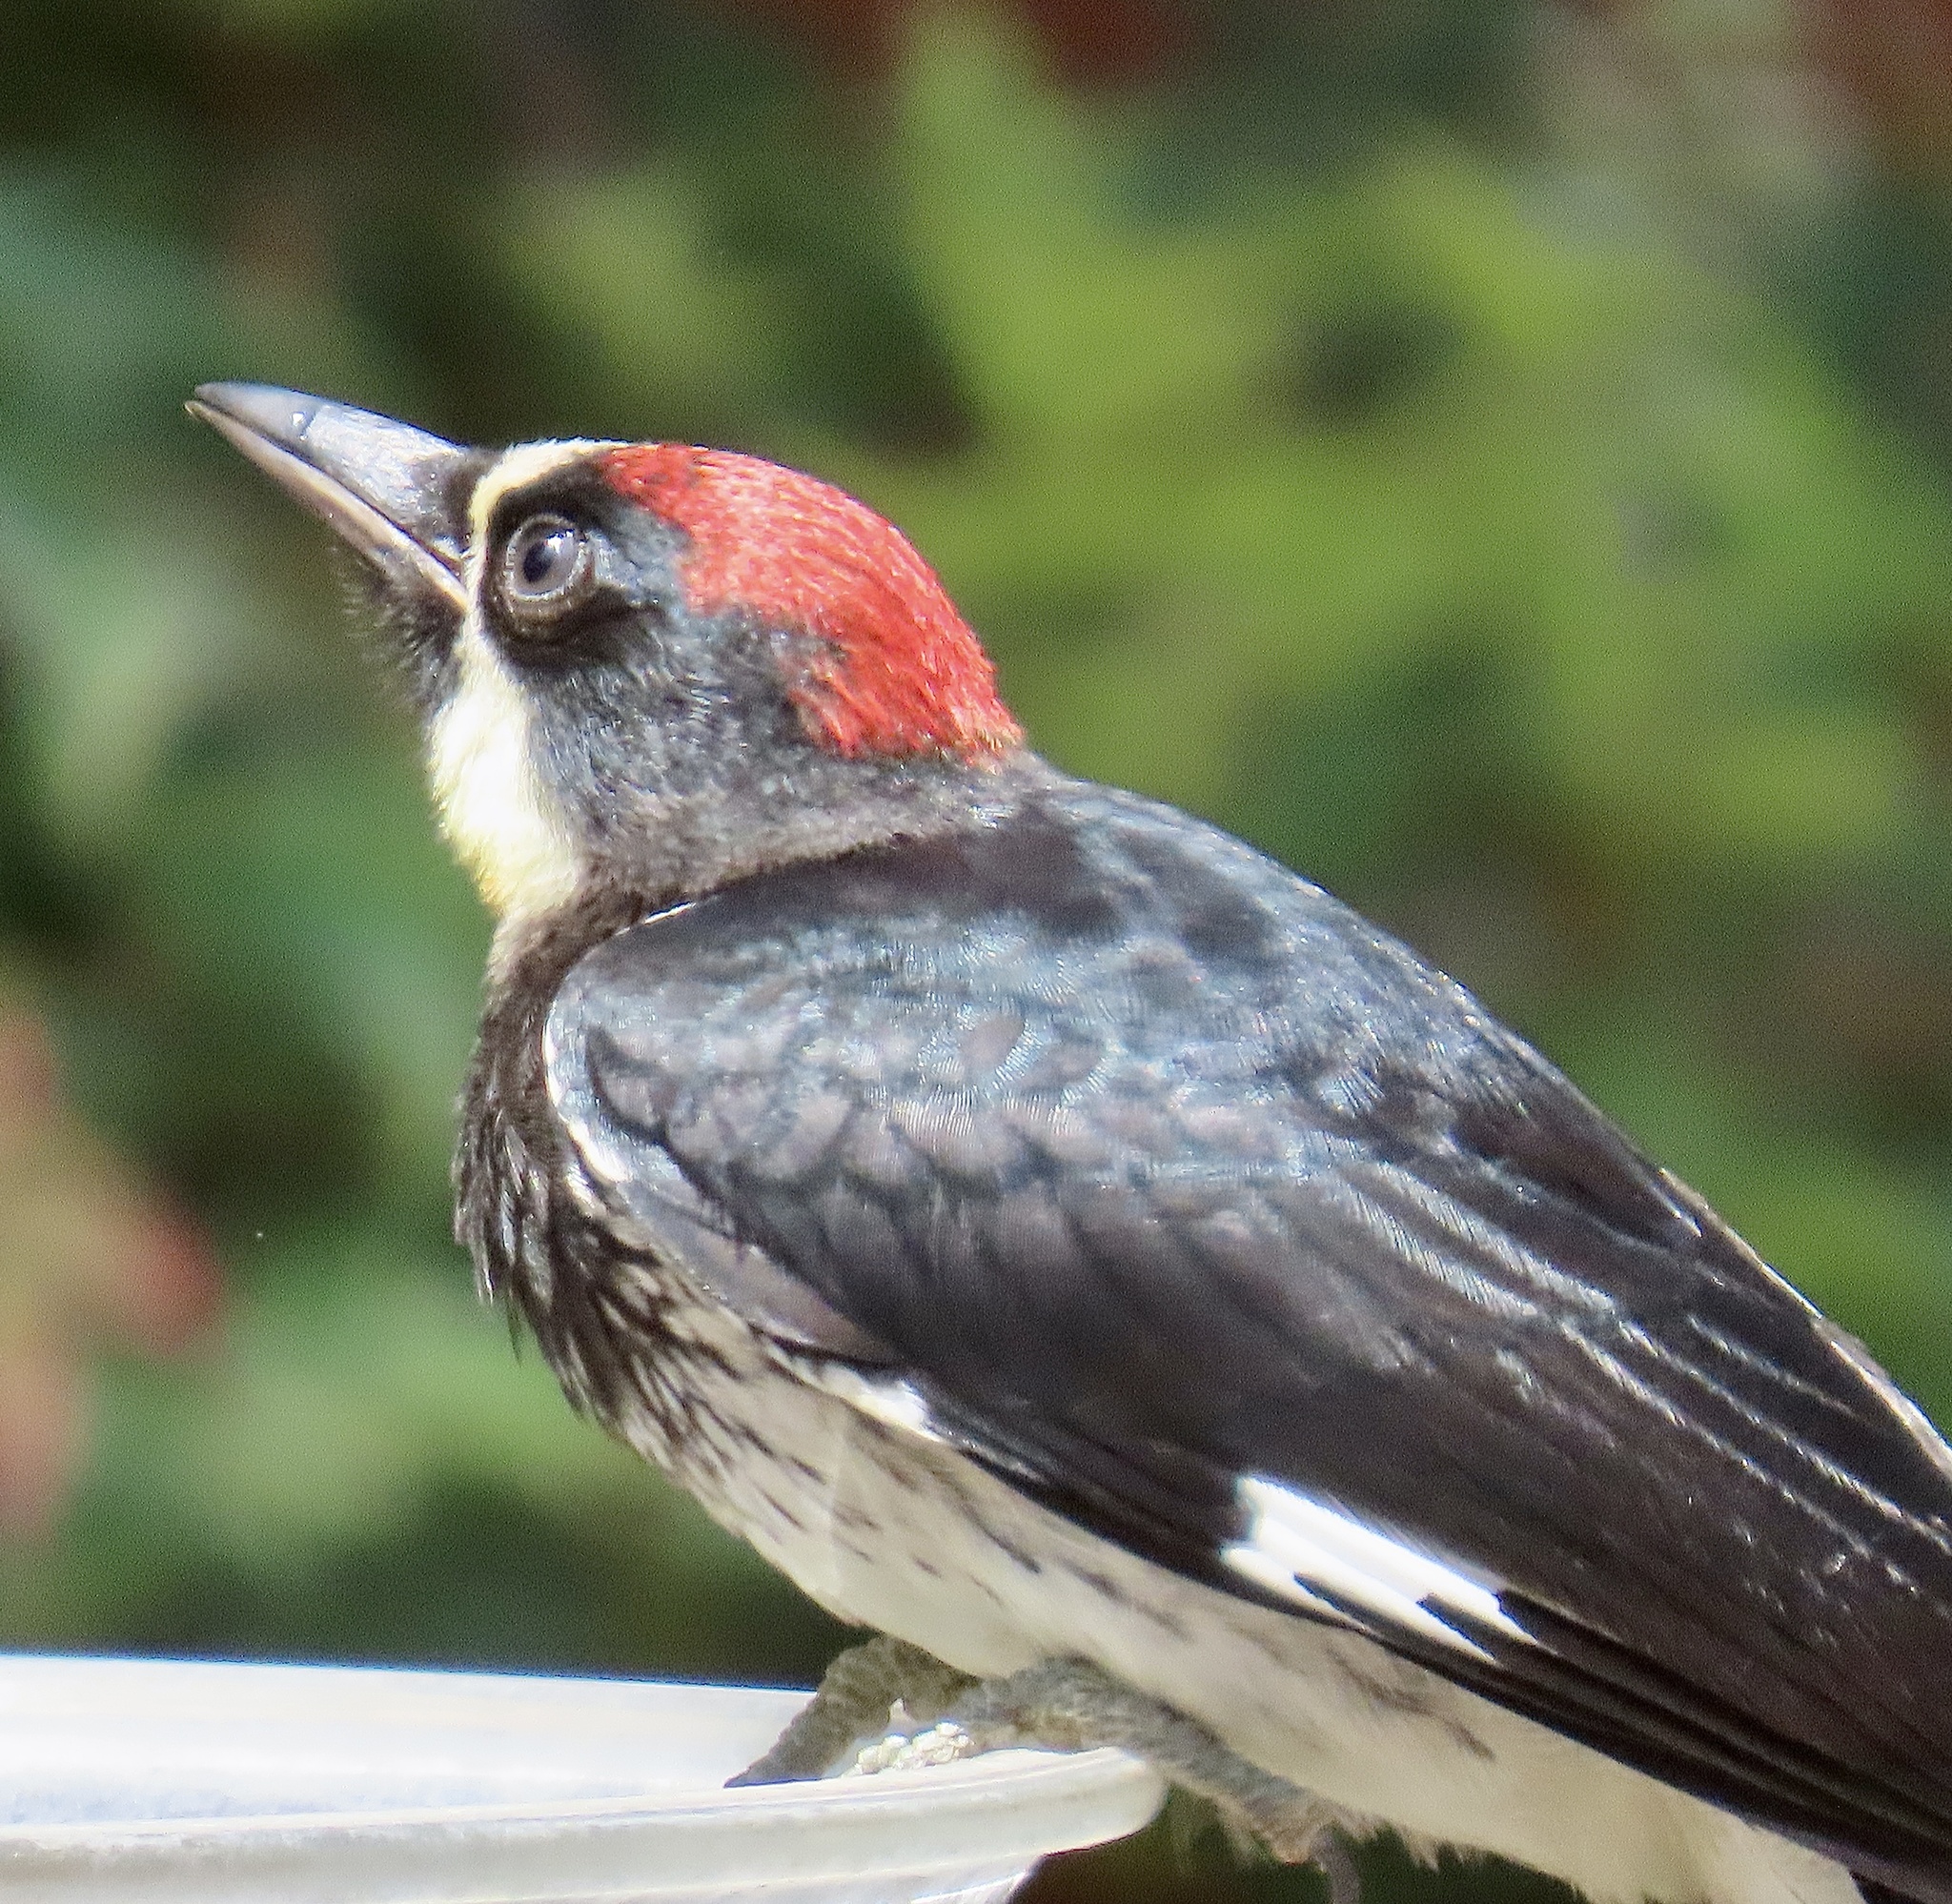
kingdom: Animalia
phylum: Chordata
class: Aves
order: Piciformes
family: Picidae
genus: Melanerpes
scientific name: Melanerpes formicivorus
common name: Acorn woodpecker
